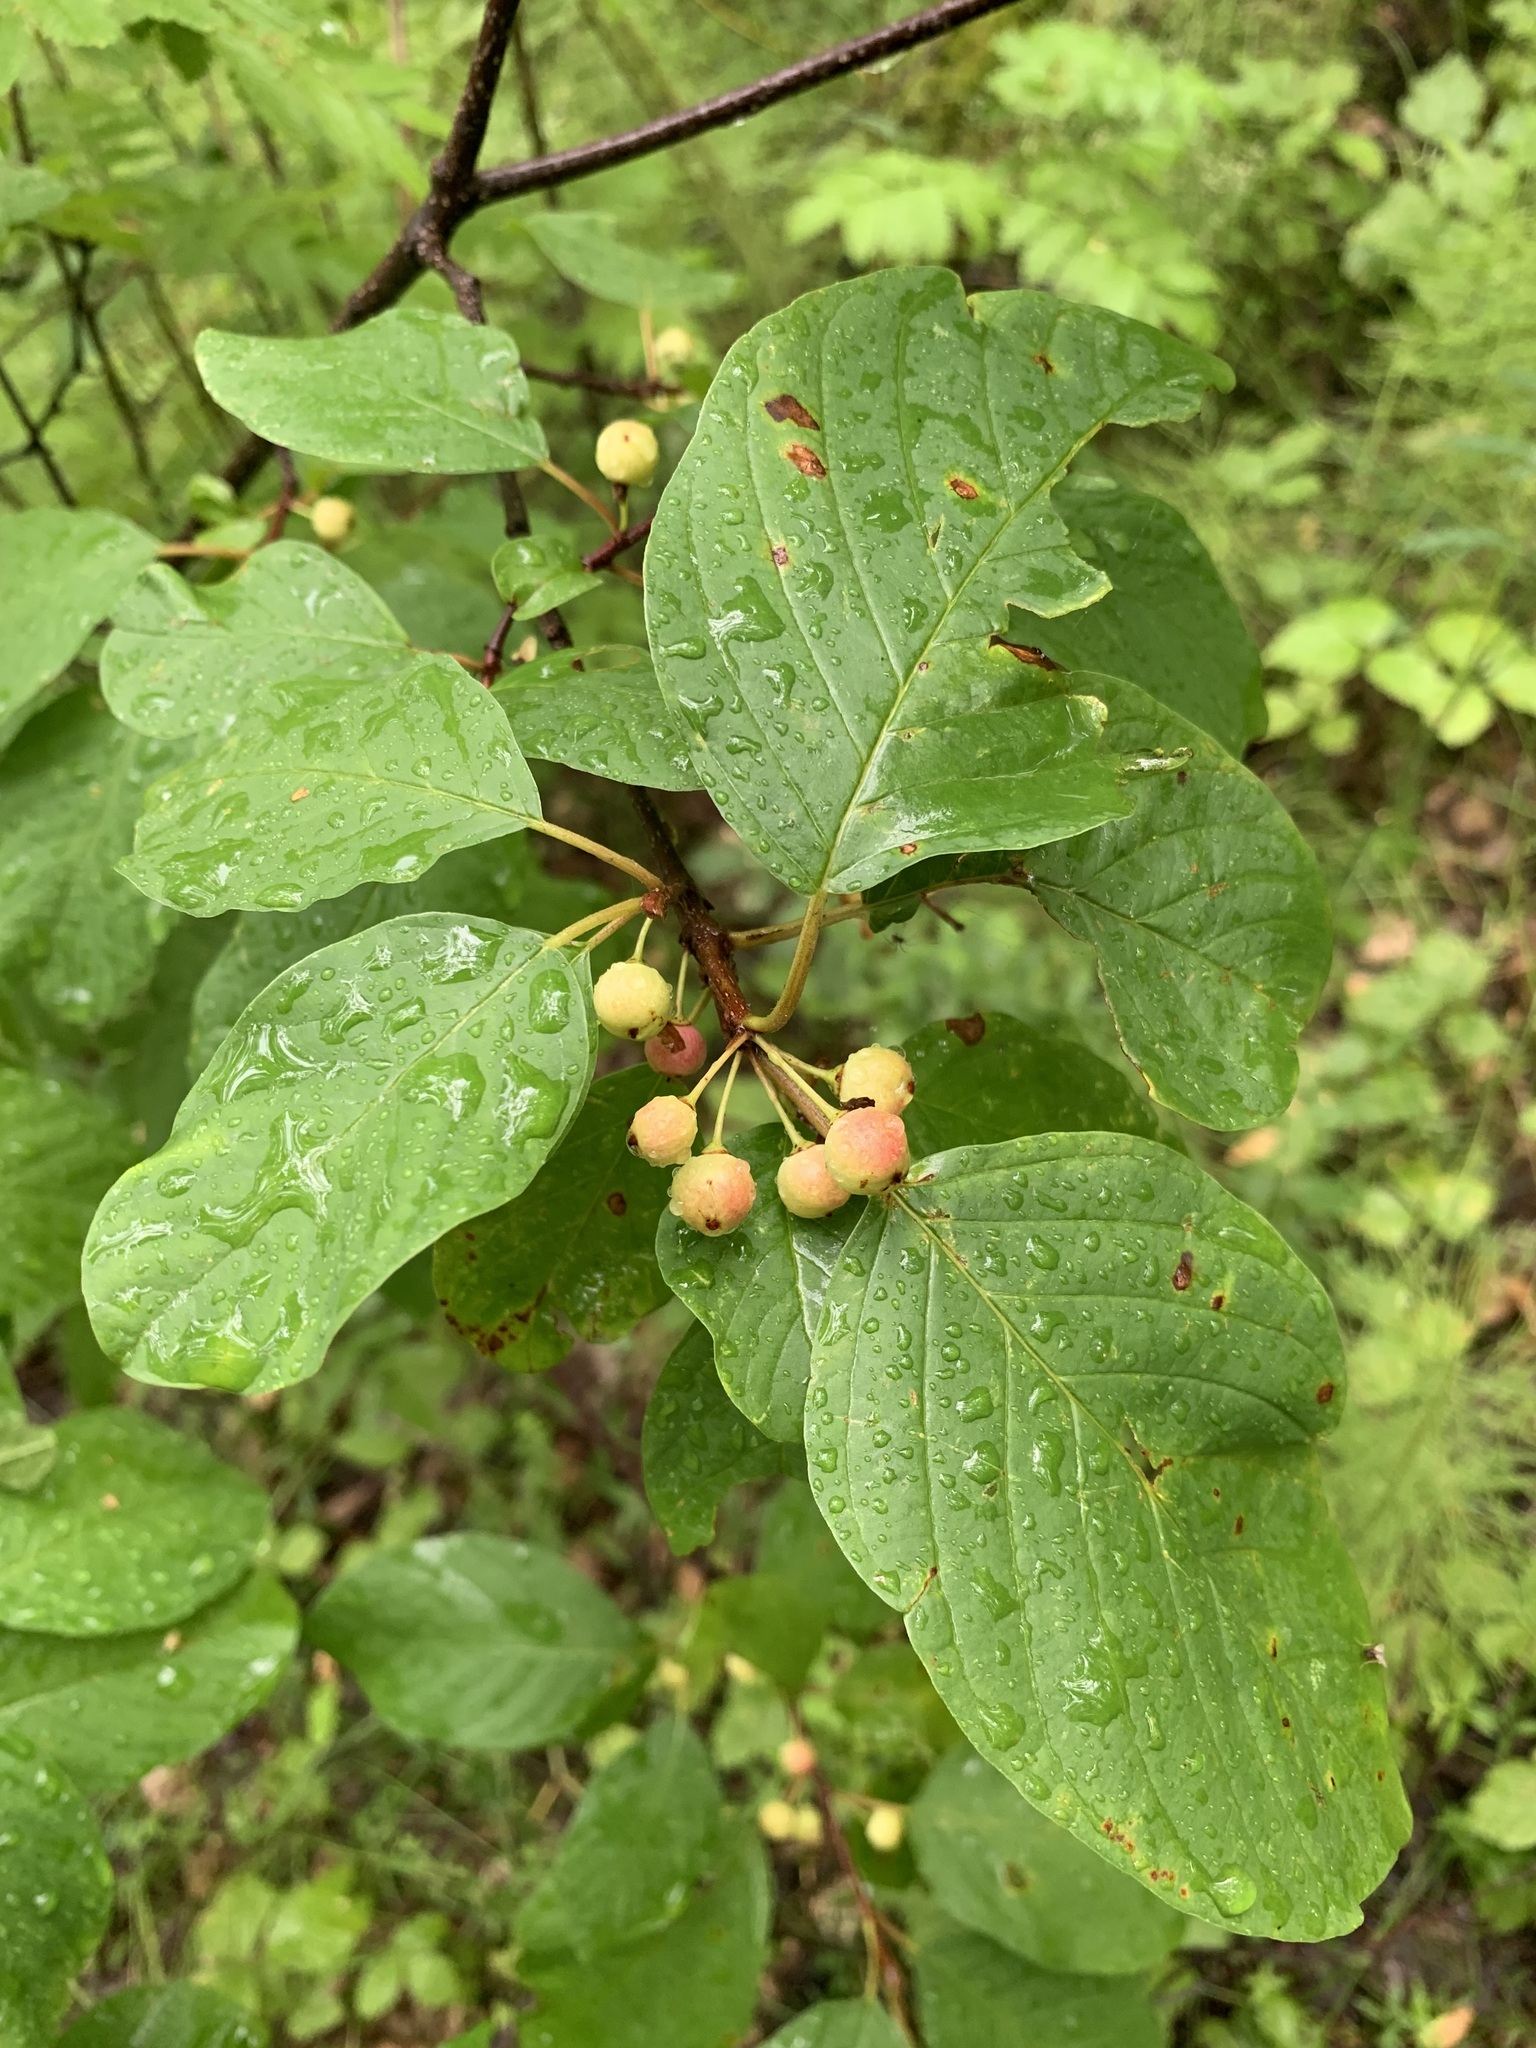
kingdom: Plantae
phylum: Tracheophyta
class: Magnoliopsida
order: Rosales
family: Rhamnaceae
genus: Frangula
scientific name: Frangula alnus
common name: Alder buckthorn
